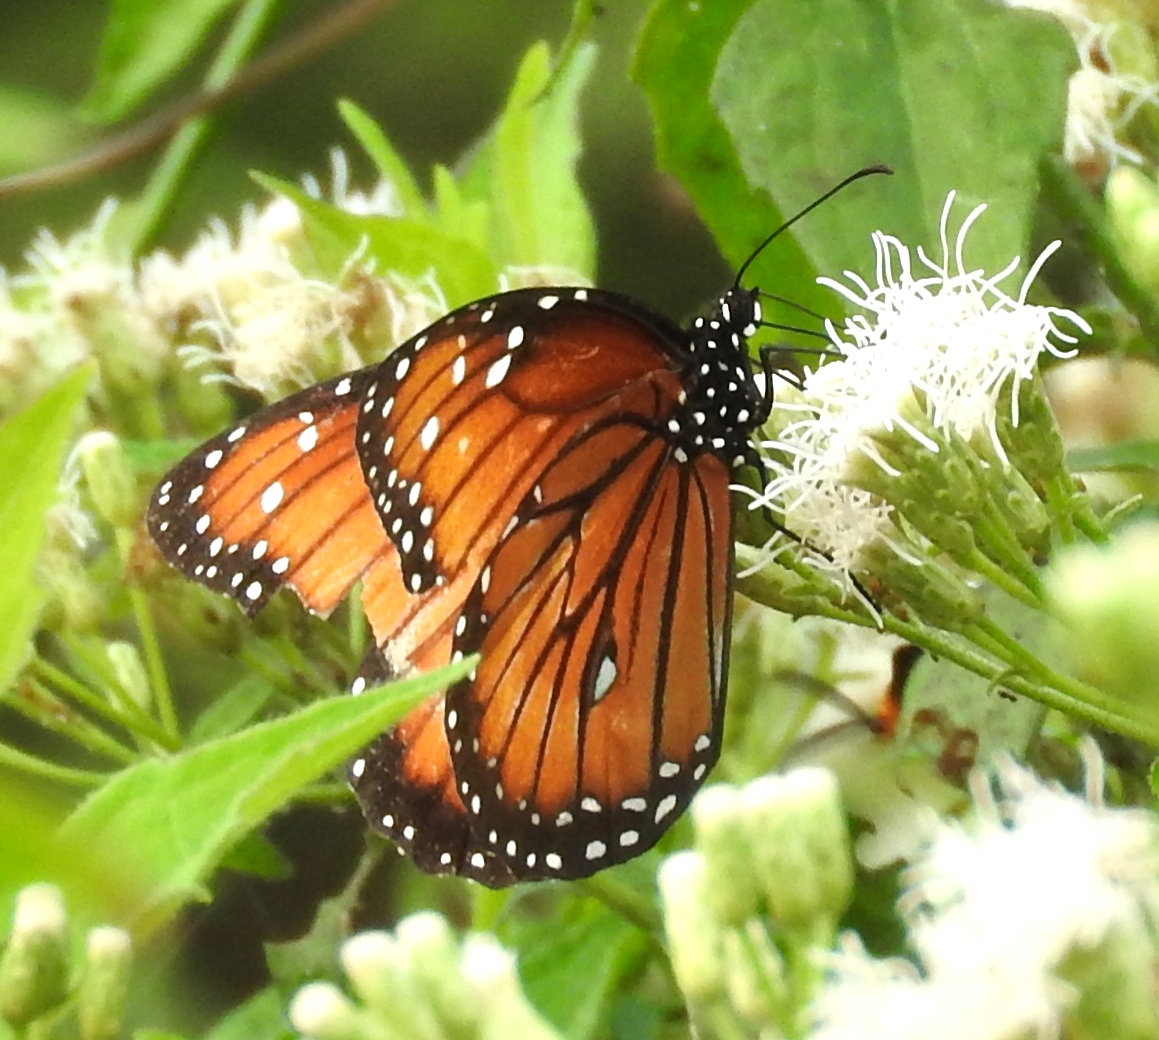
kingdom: Animalia
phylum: Arthropoda
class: Insecta
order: Lepidoptera
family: Nymphalidae
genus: Danaus
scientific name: Danaus eresimus
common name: Soldier
